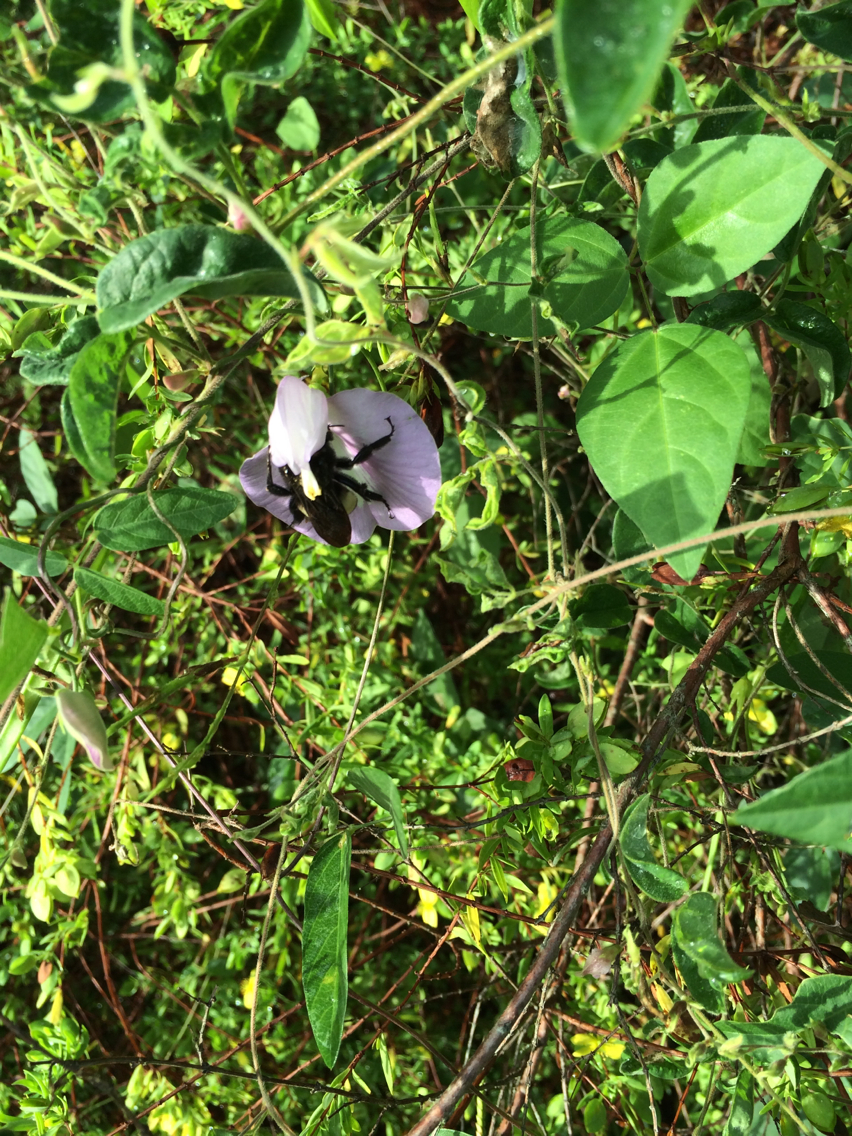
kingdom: Animalia
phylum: Arthropoda
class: Insecta
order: Hymenoptera
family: Apidae
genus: Bombus
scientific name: Bombus pensylvanicus
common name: Bumble bee
